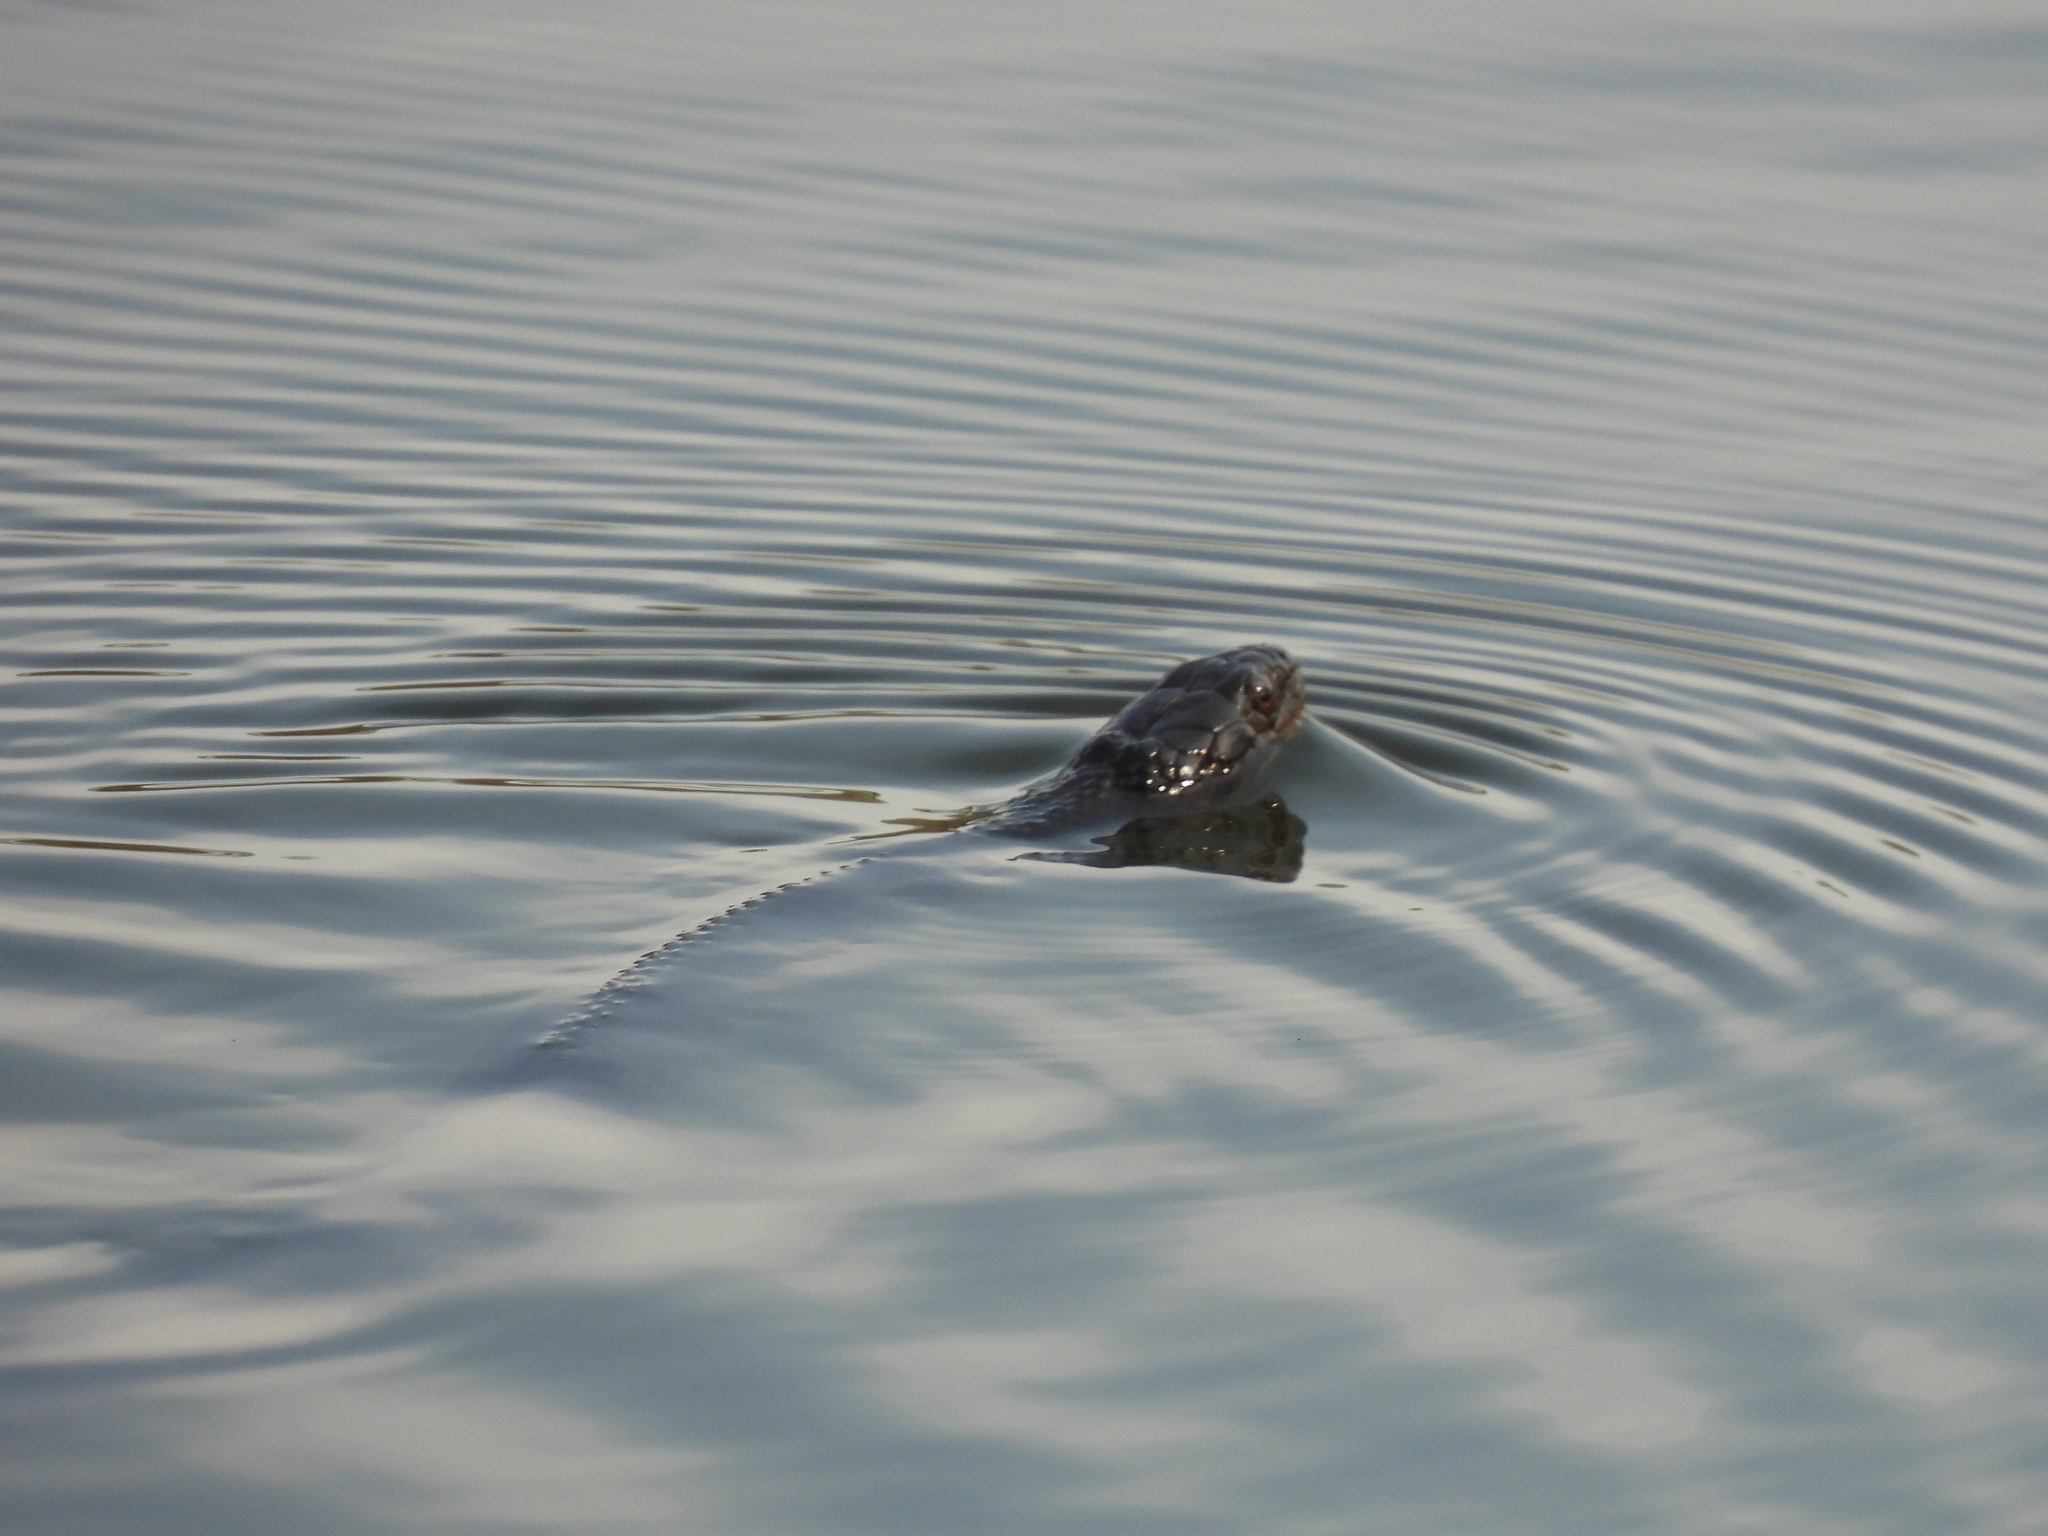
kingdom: Animalia
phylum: Chordata
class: Squamata
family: Colubridae
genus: Nerodia
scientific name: Nerodia cyclopion
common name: Mississippi green water snake
